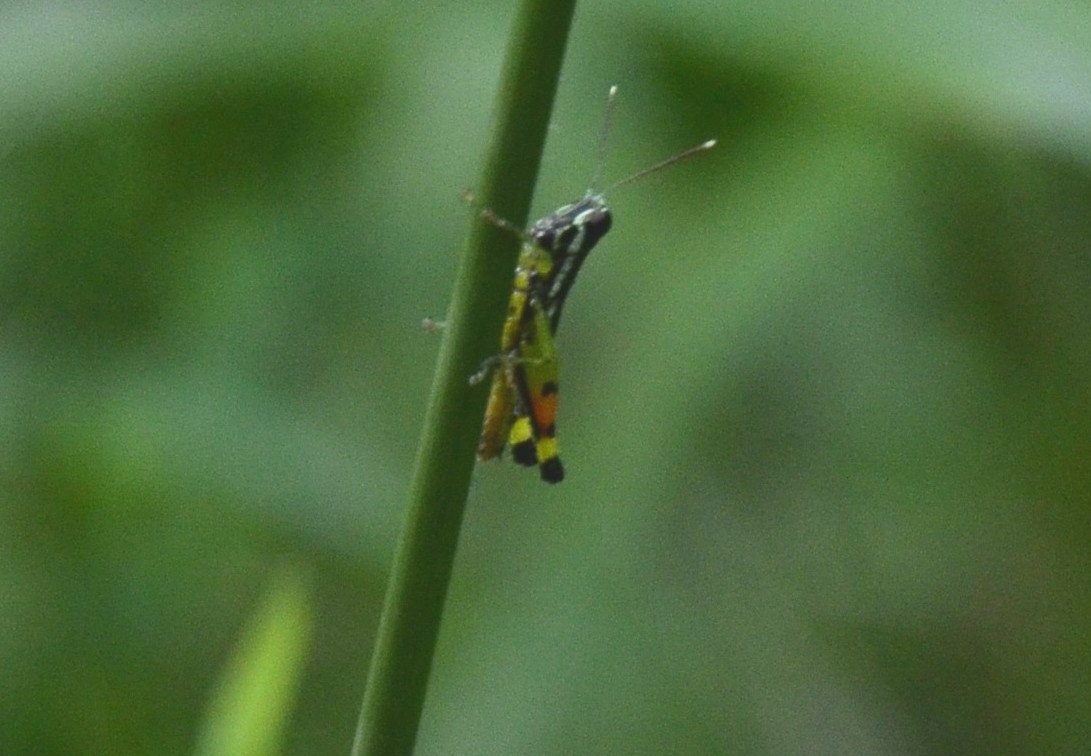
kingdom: Animalia
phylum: Arthropoda
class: Insecta
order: Orthoptera
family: Acrididae
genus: Chitaura
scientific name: Chitaura indica
